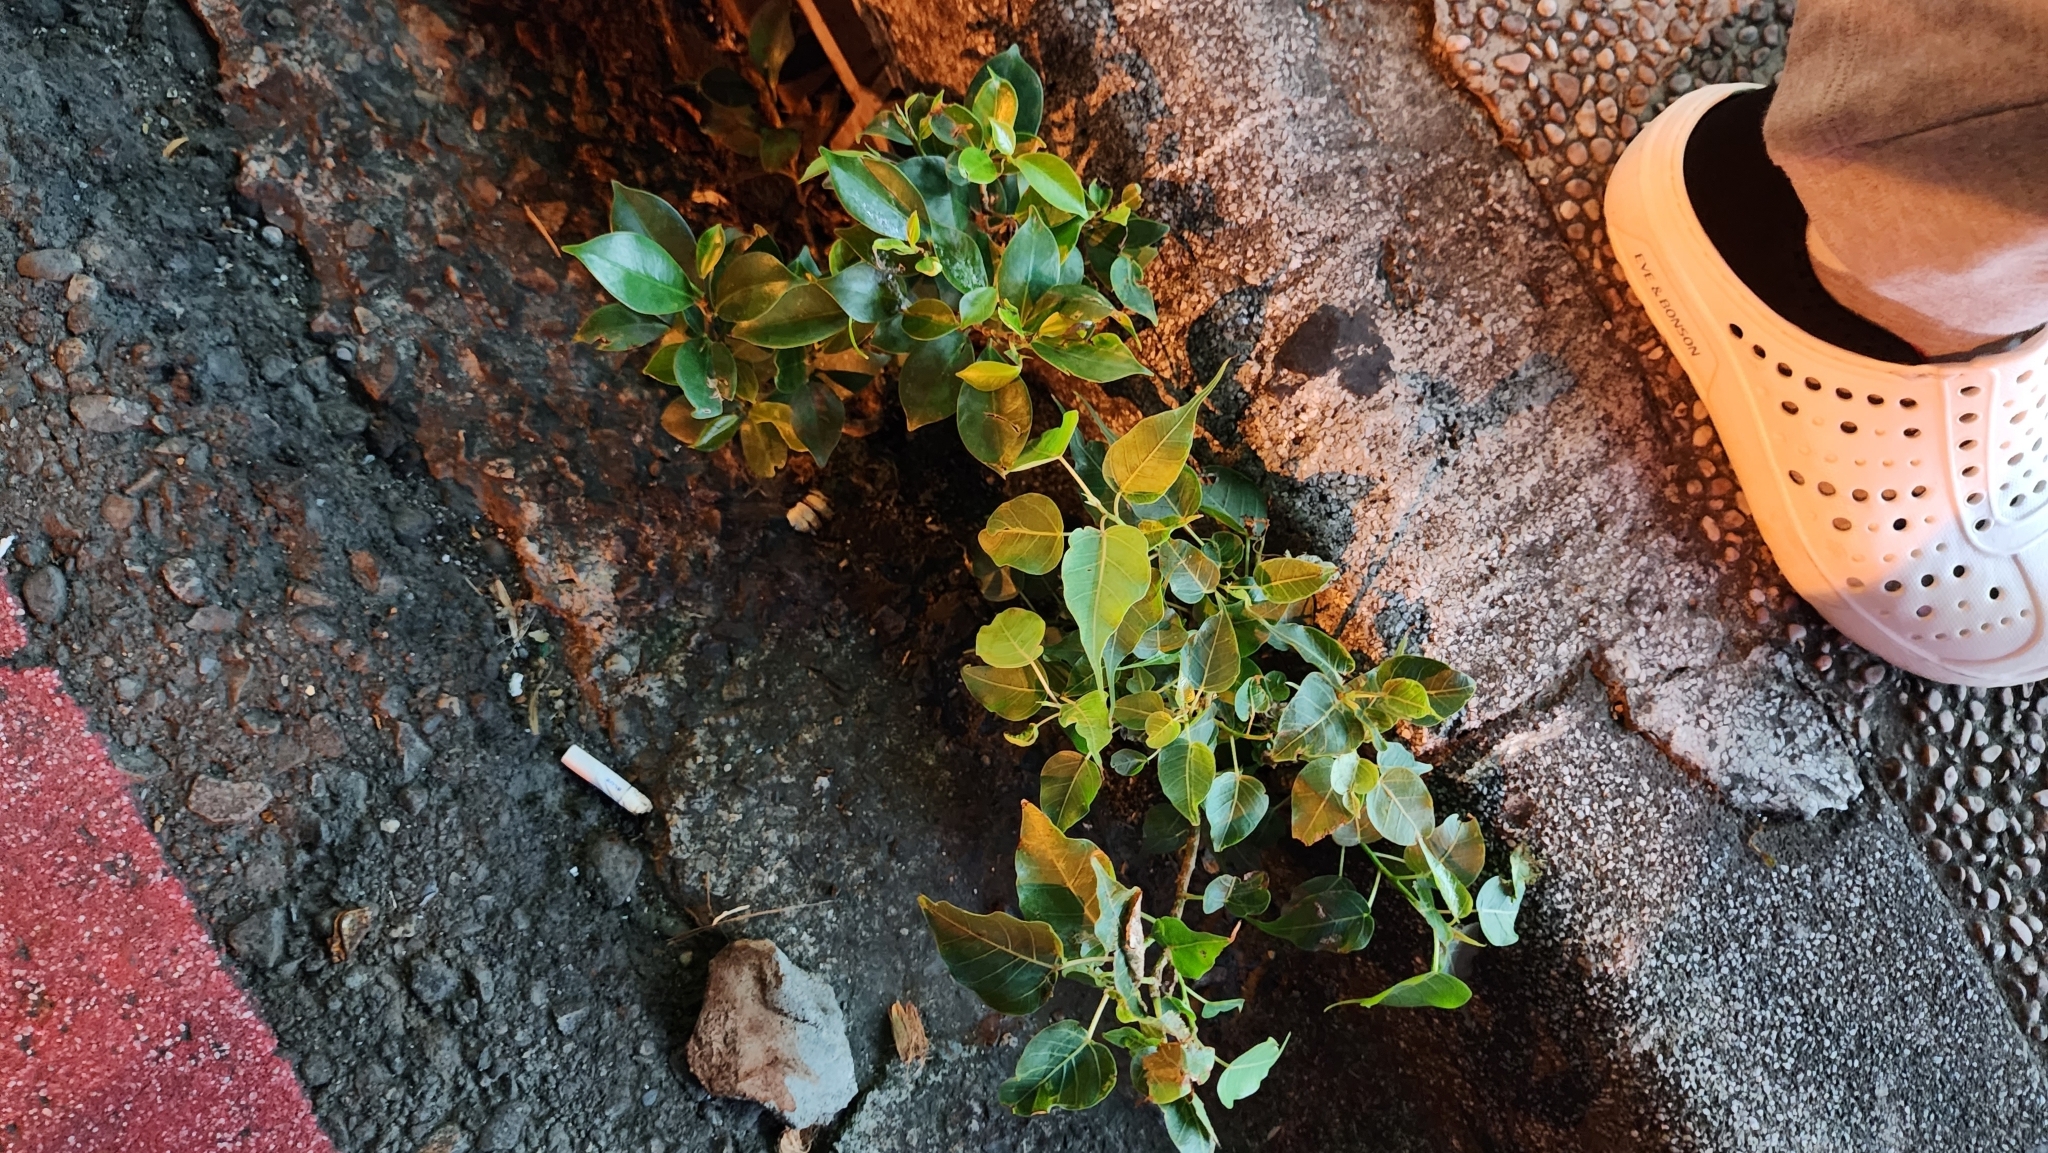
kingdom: Plantae
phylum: Tracheophyta
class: Magnoliopsida
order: Rosales
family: Moraceae
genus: Ficus
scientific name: Ficus religiosa
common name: Bodhi tree
